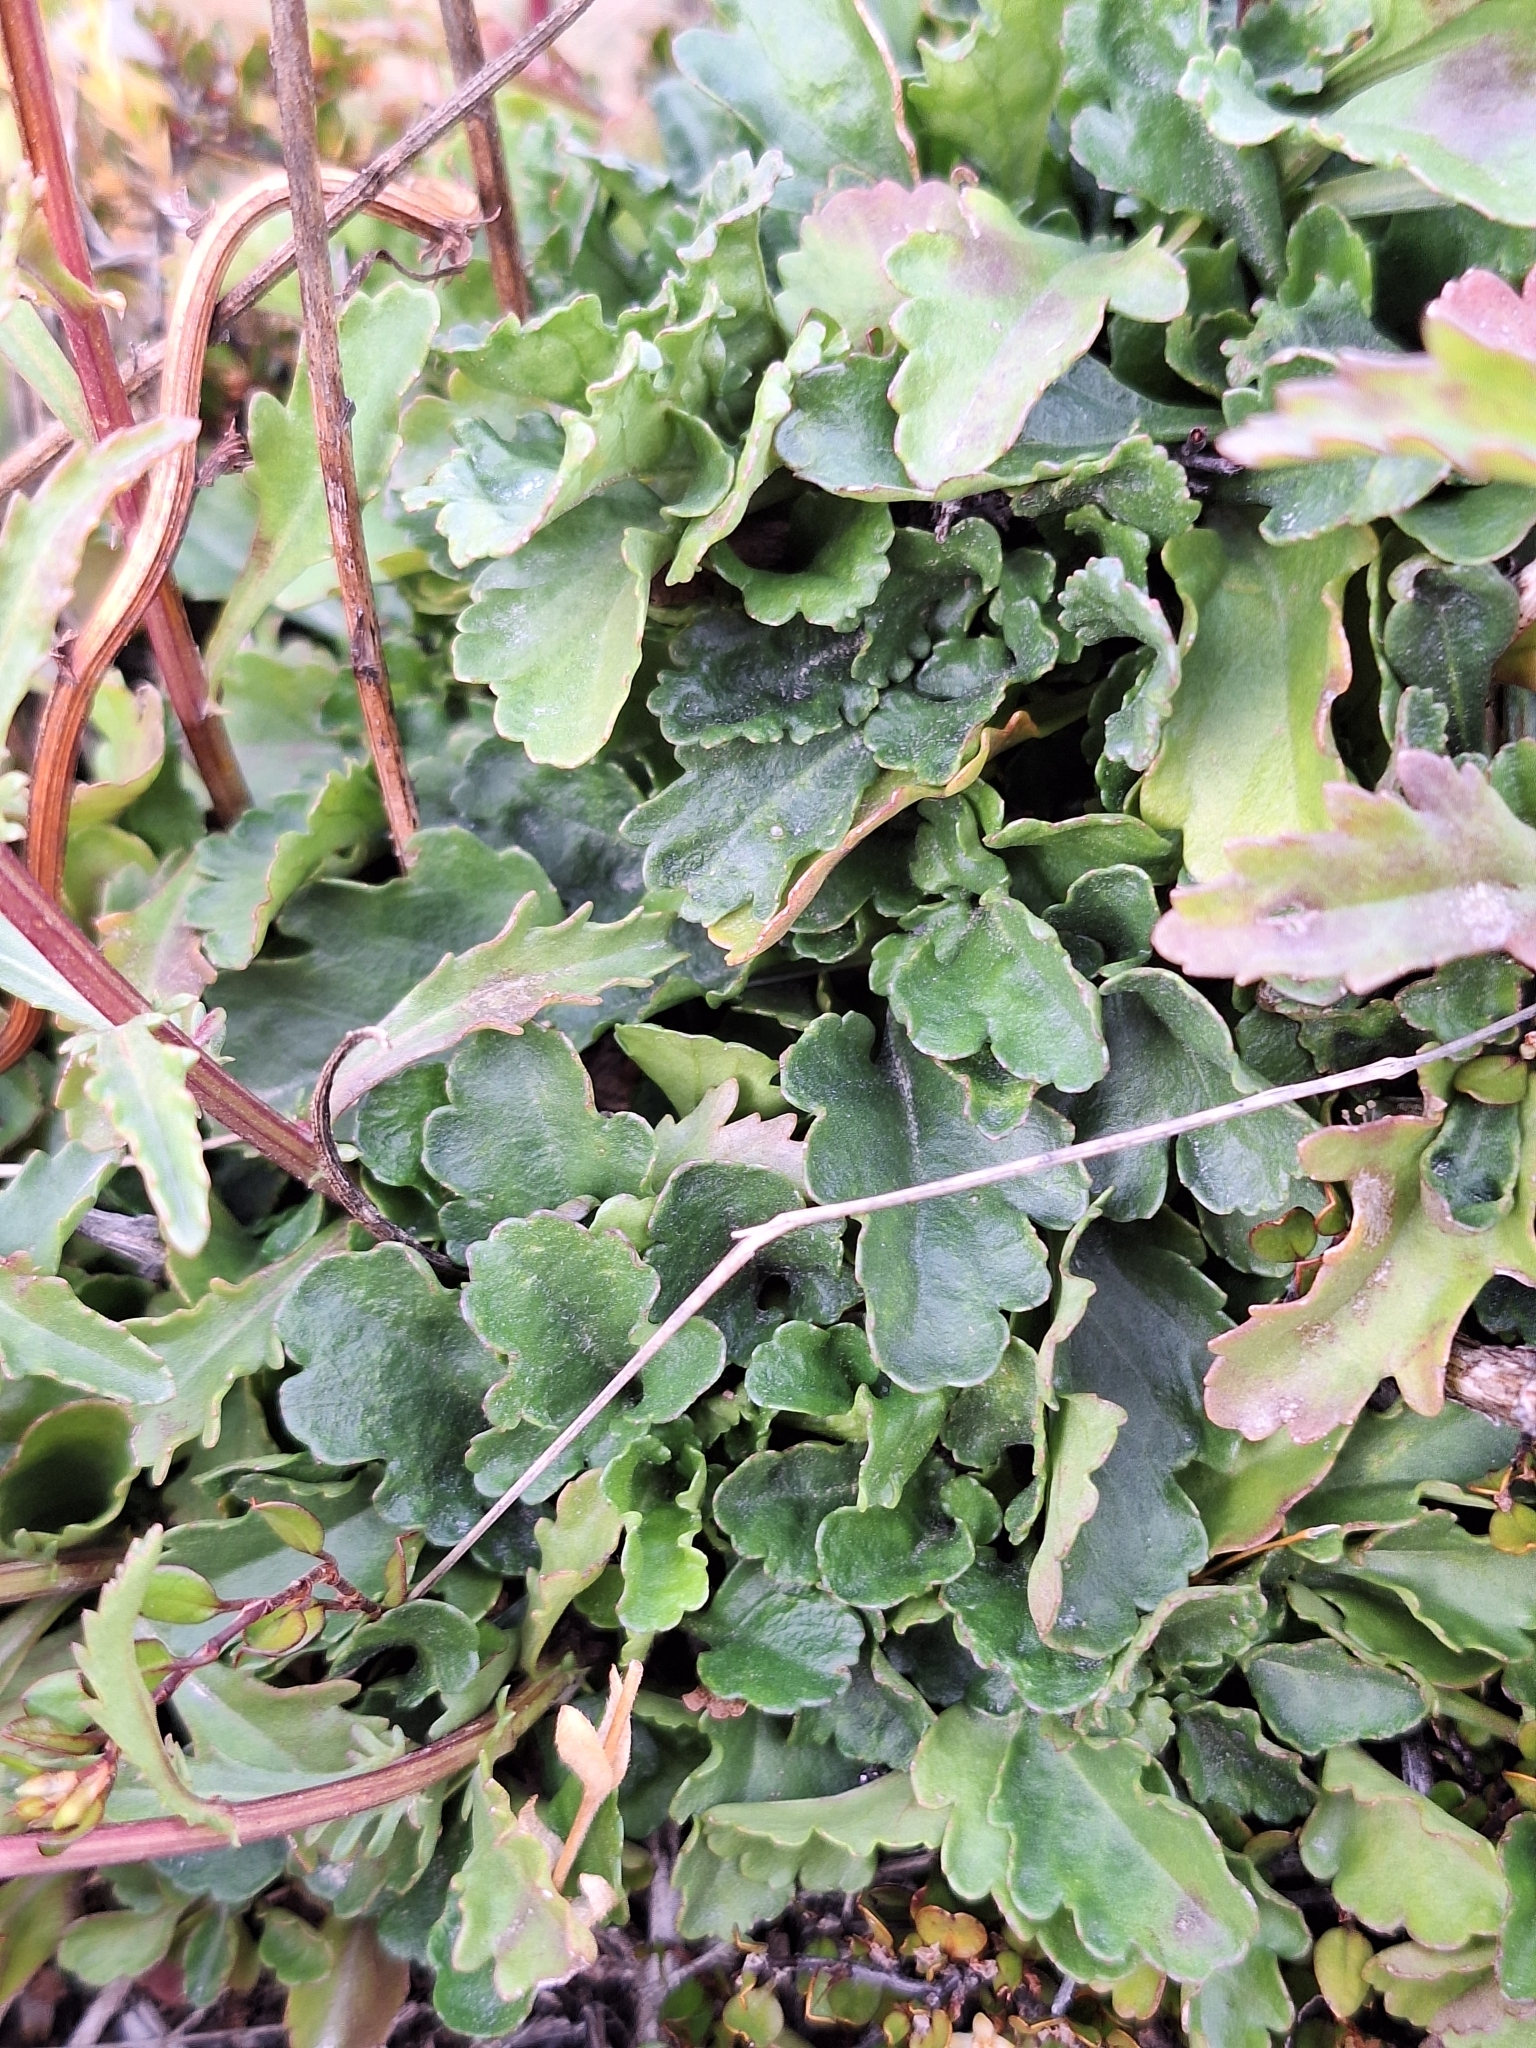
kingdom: Plantae
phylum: Tracheophyta
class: Magnoliopsida
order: Asterales
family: Asteraceae
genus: Leucanthemum
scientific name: Leucanthemum vulgare
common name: Oxeye daisy
